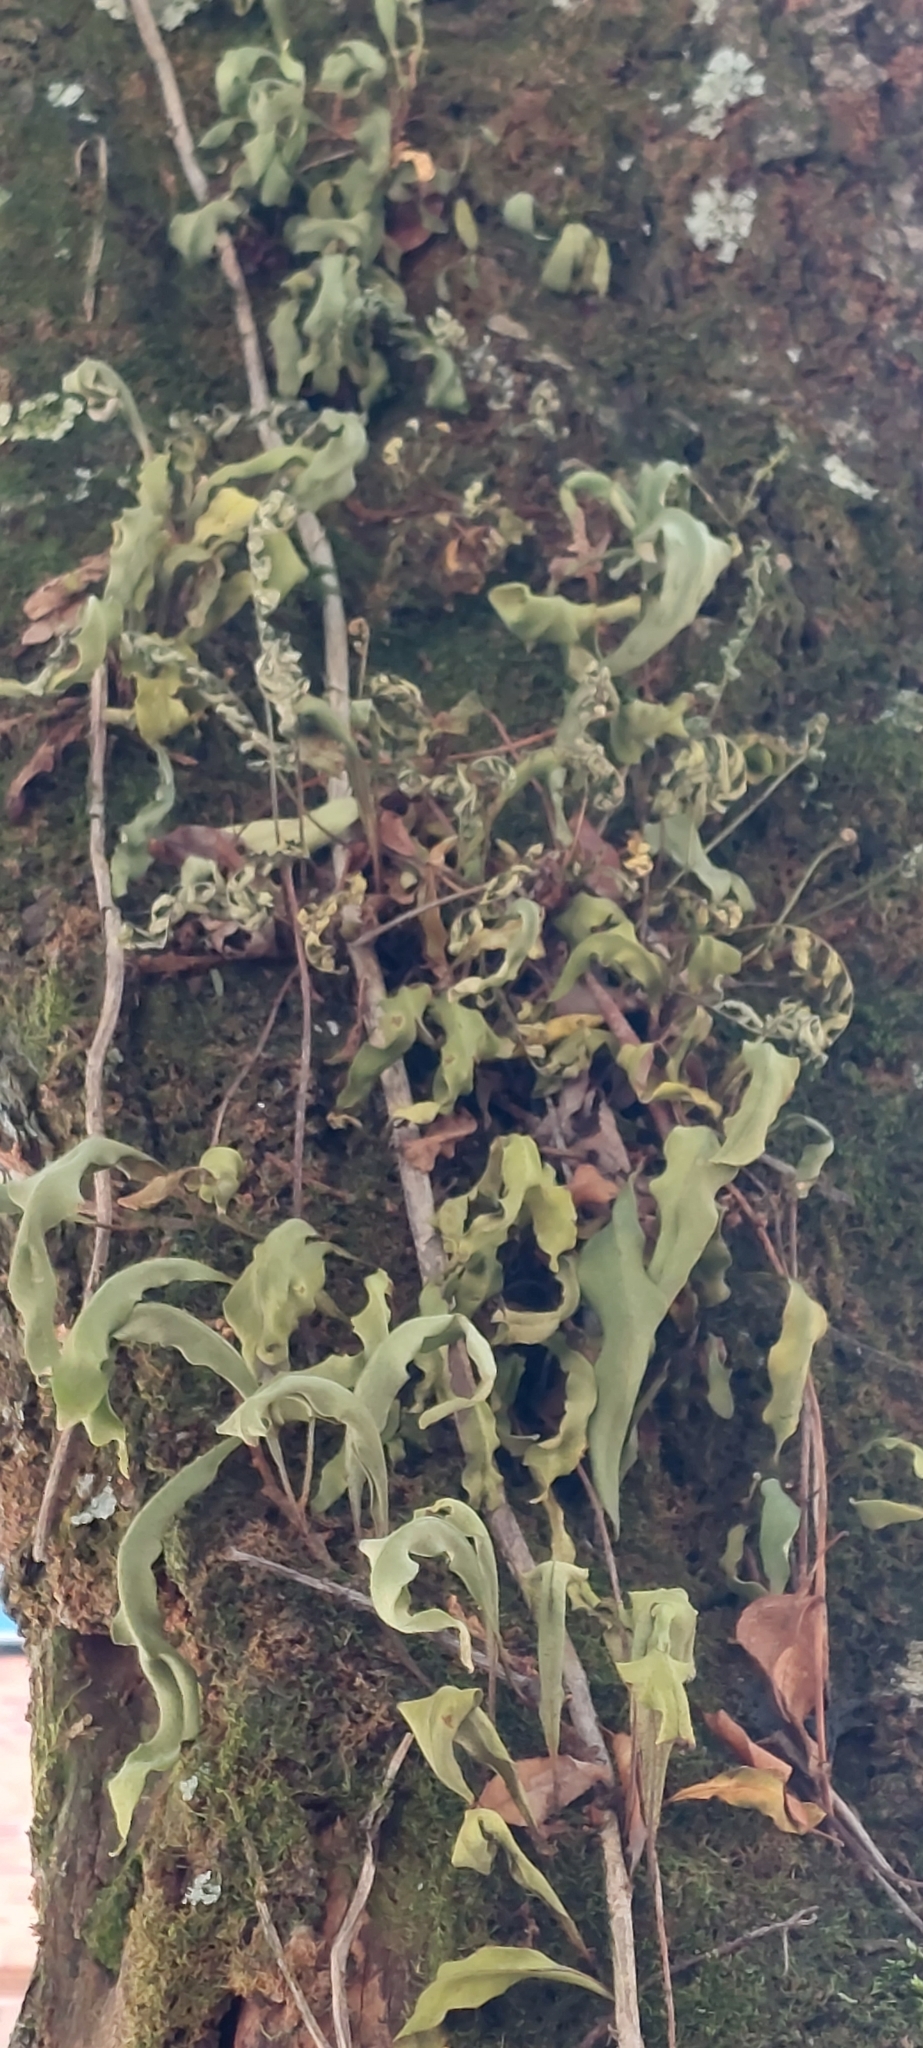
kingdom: Plantae
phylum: Tracheophyta
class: Polypodiopsida
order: Polypodiales
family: Polypodiaceae
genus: Pleopeltis
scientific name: Pleopeltis macrocarpa
